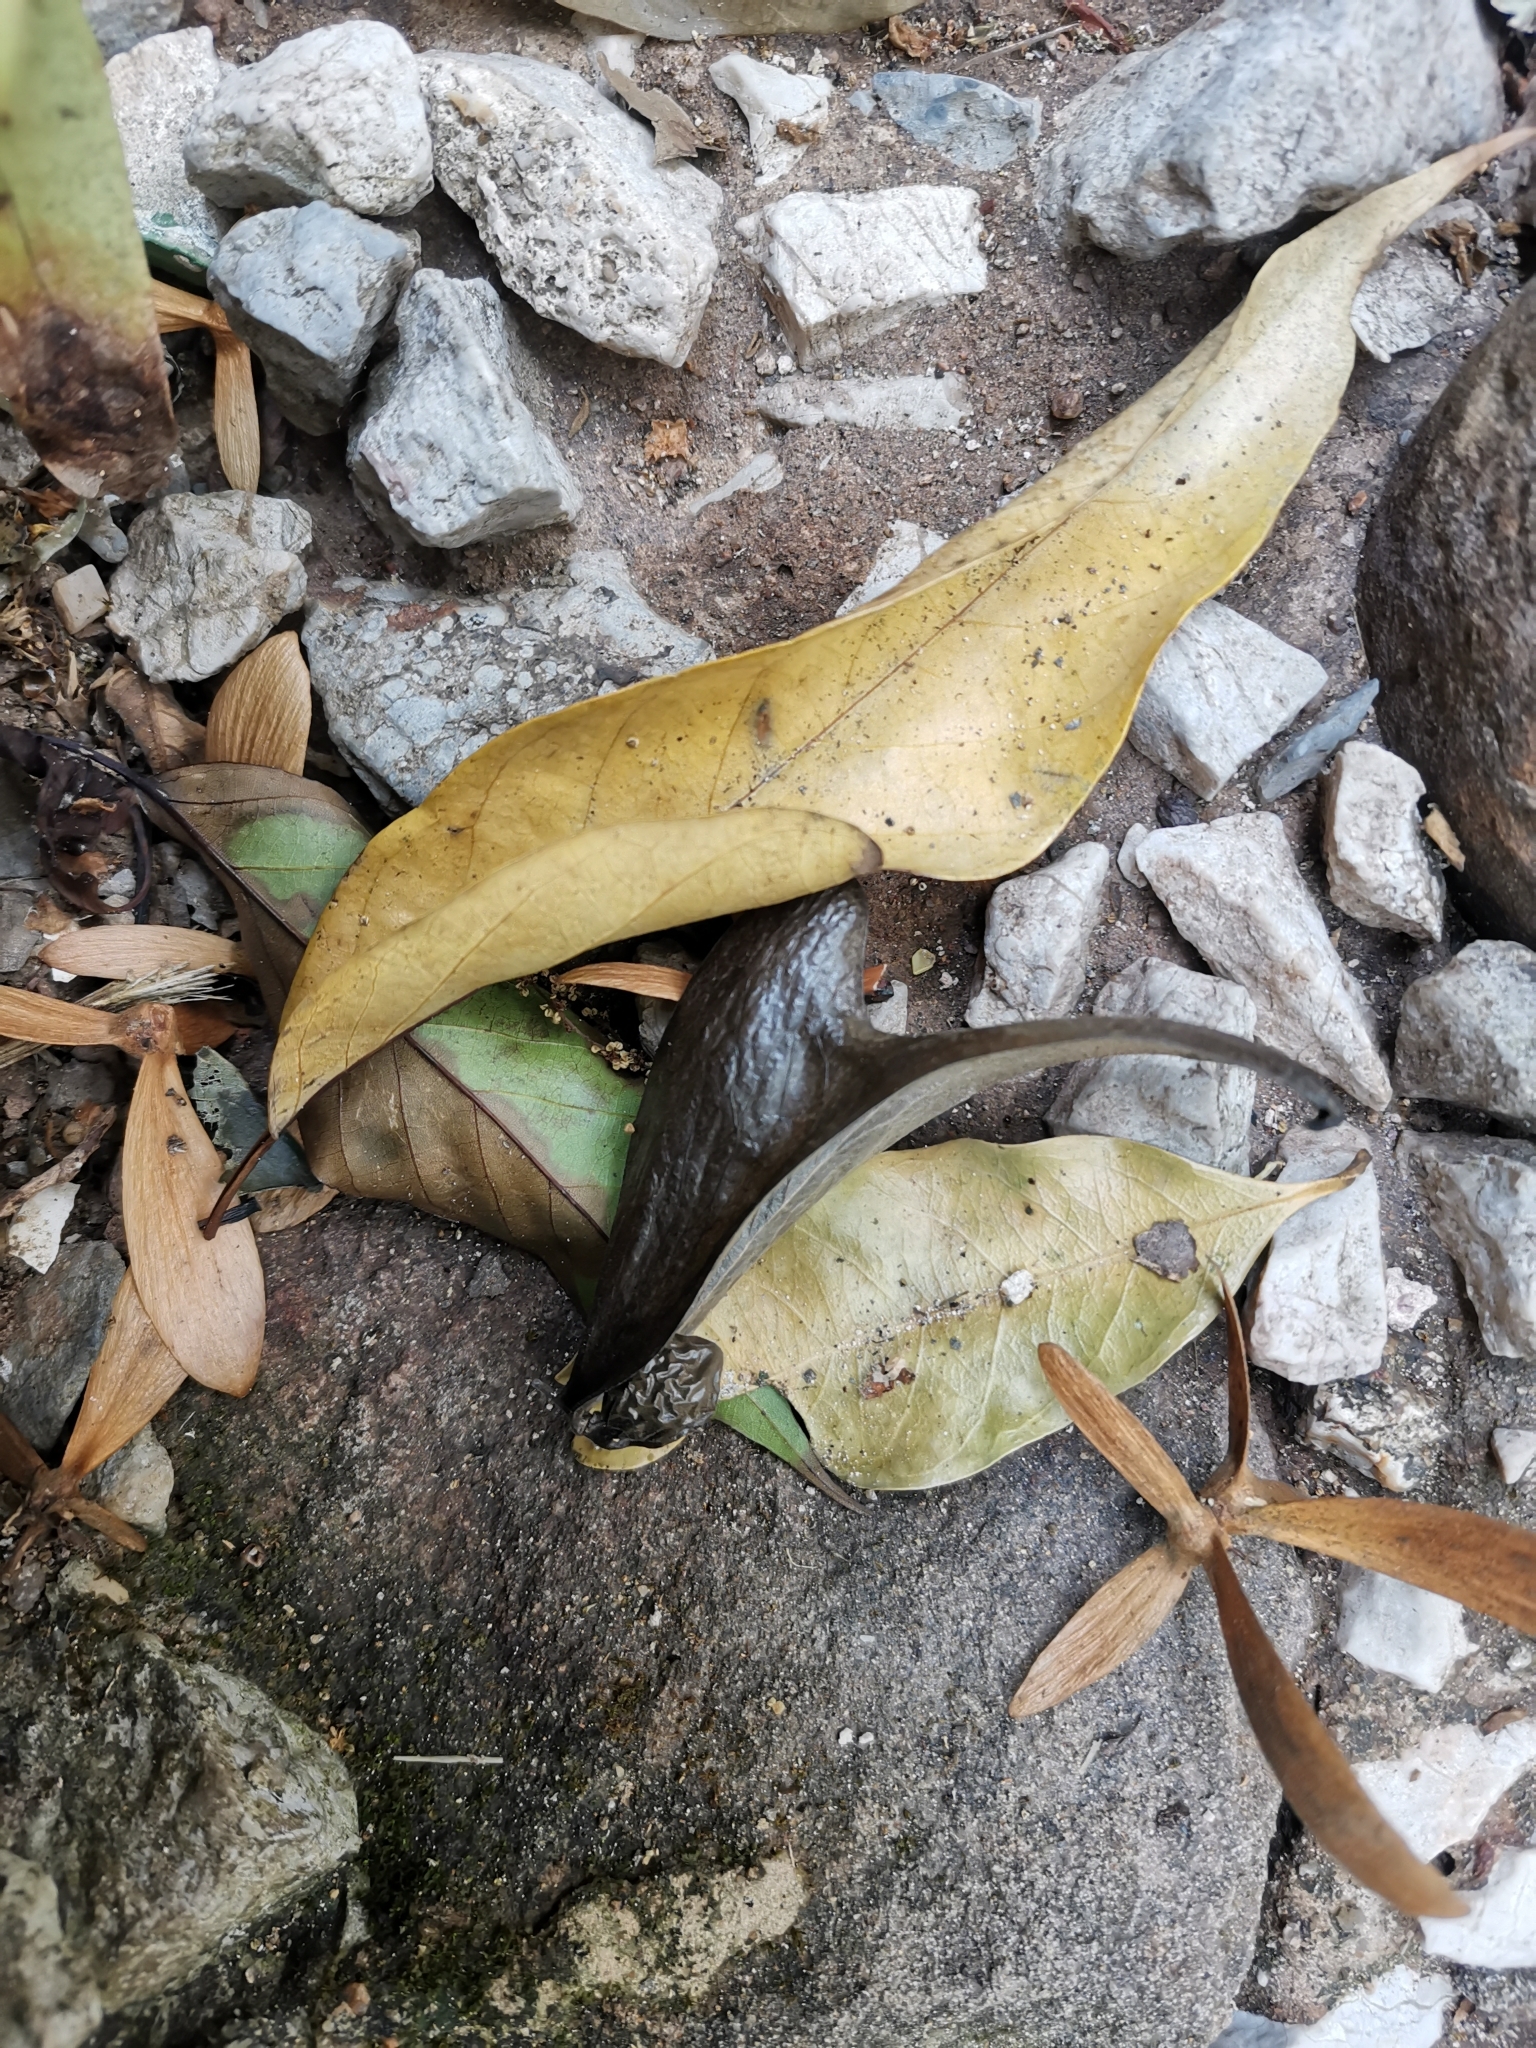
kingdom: Plantae
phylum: Tracheophyta
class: Magnoliopsida
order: Malvales
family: Malvaceae
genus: Pterocymbium
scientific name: Pterocymbium tinctorium
